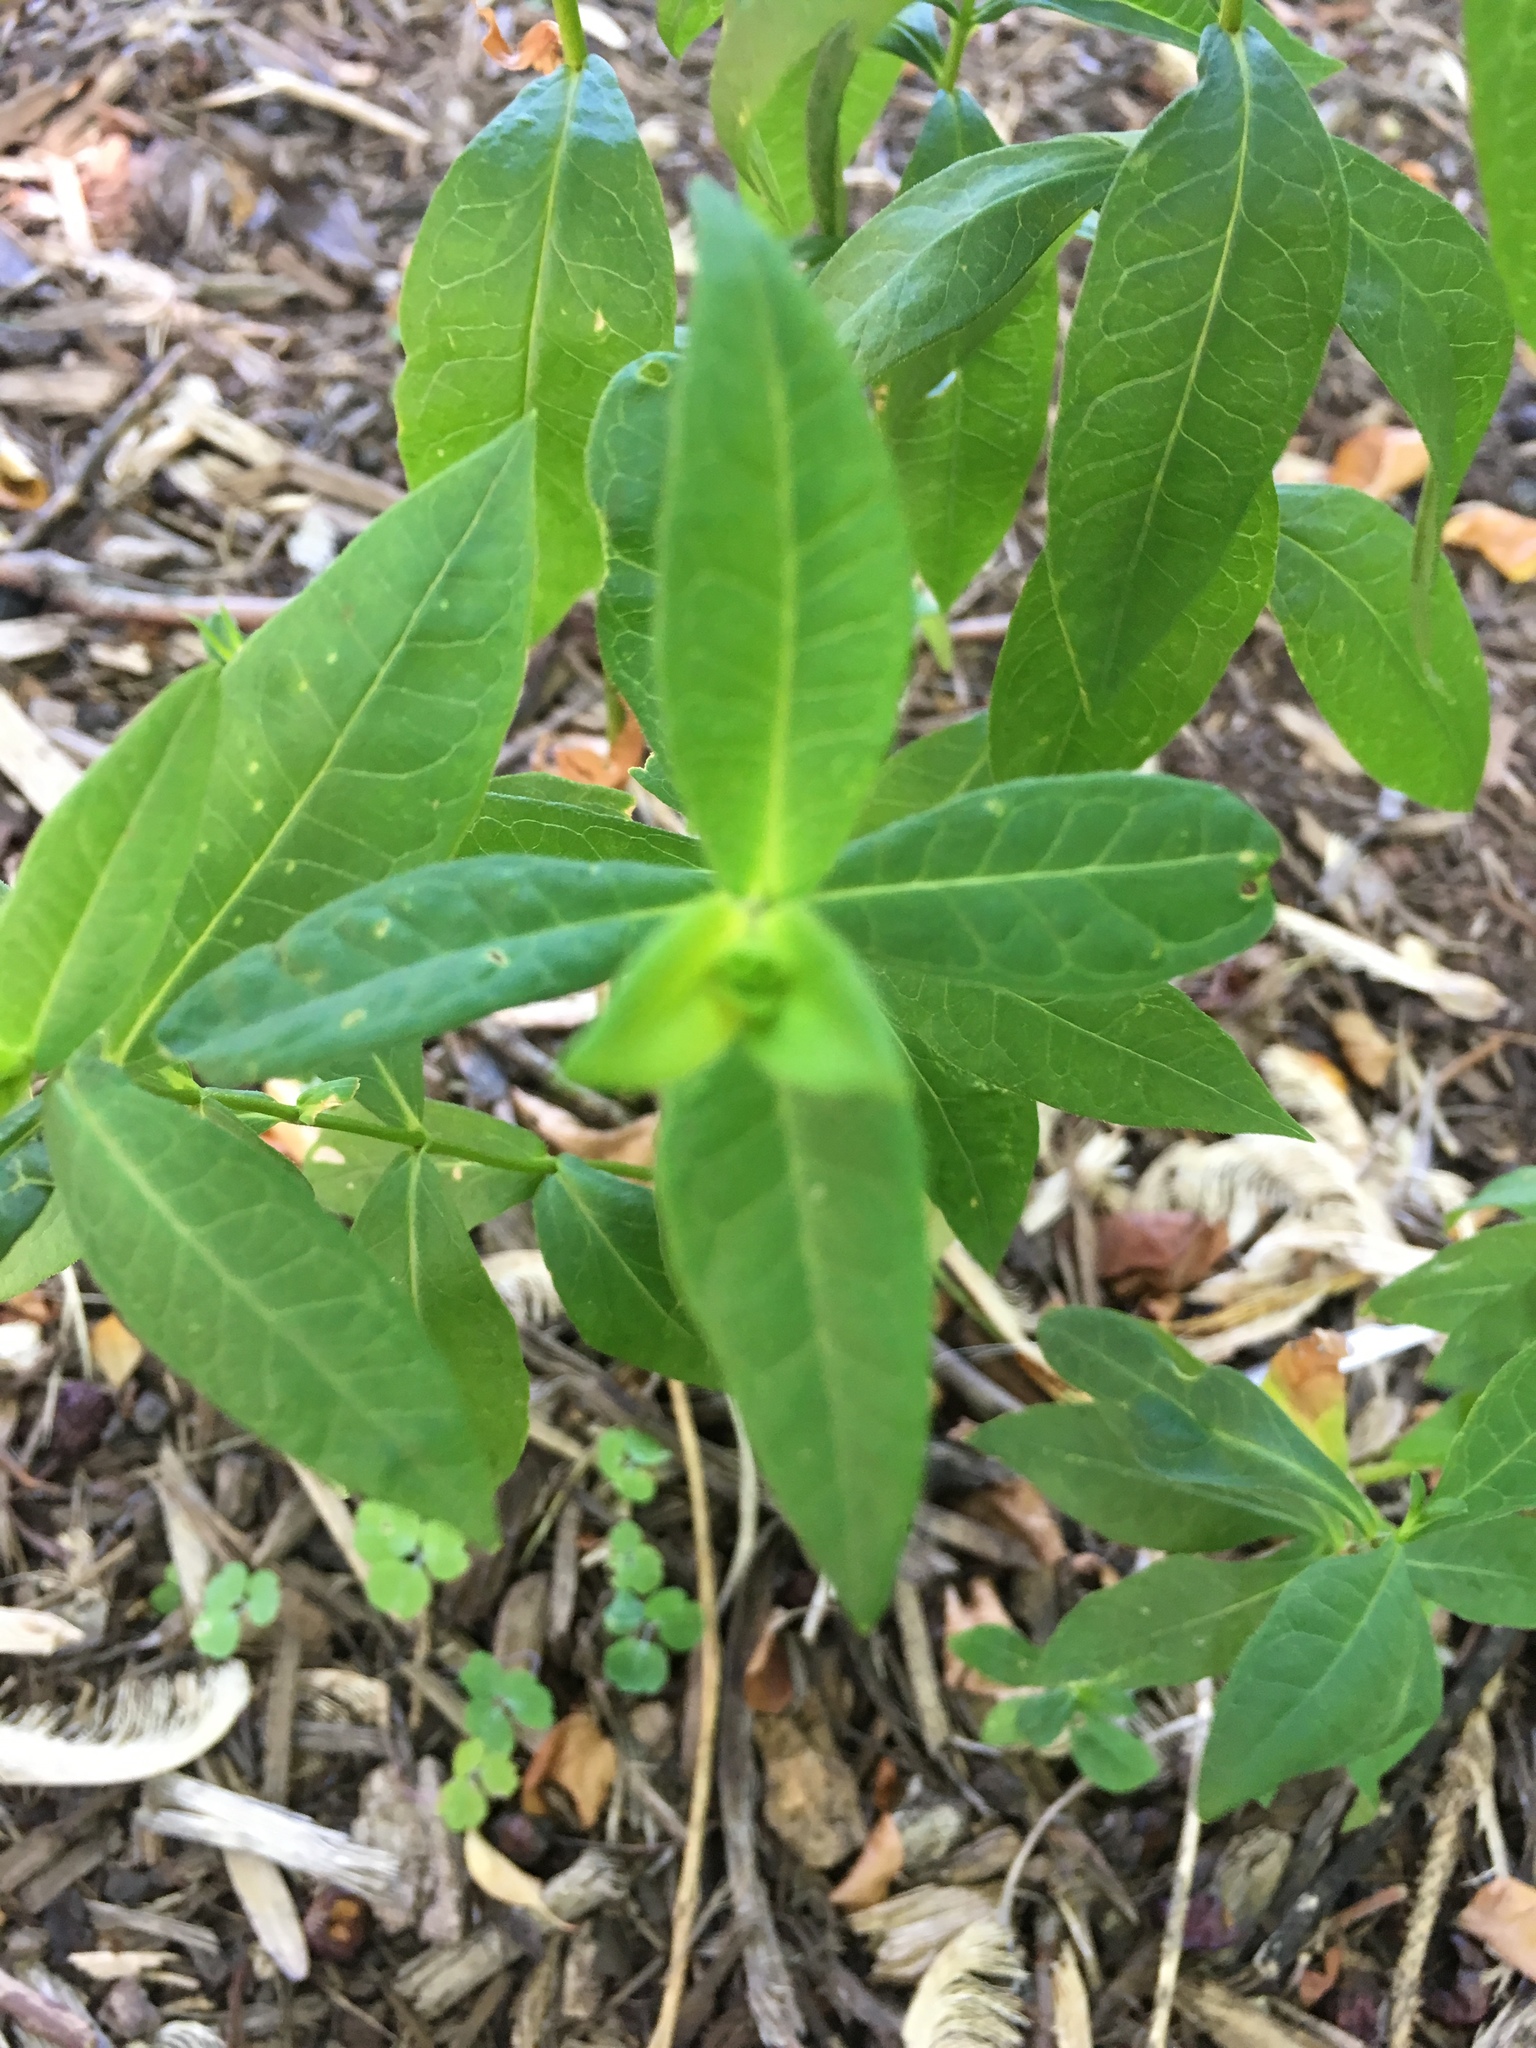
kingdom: Plantae
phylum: Tracheophyta
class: Magnoliopsida
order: Ericales
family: Polemoniaceae
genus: Phlox
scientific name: Phlox paniculata
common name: Fall phlox
